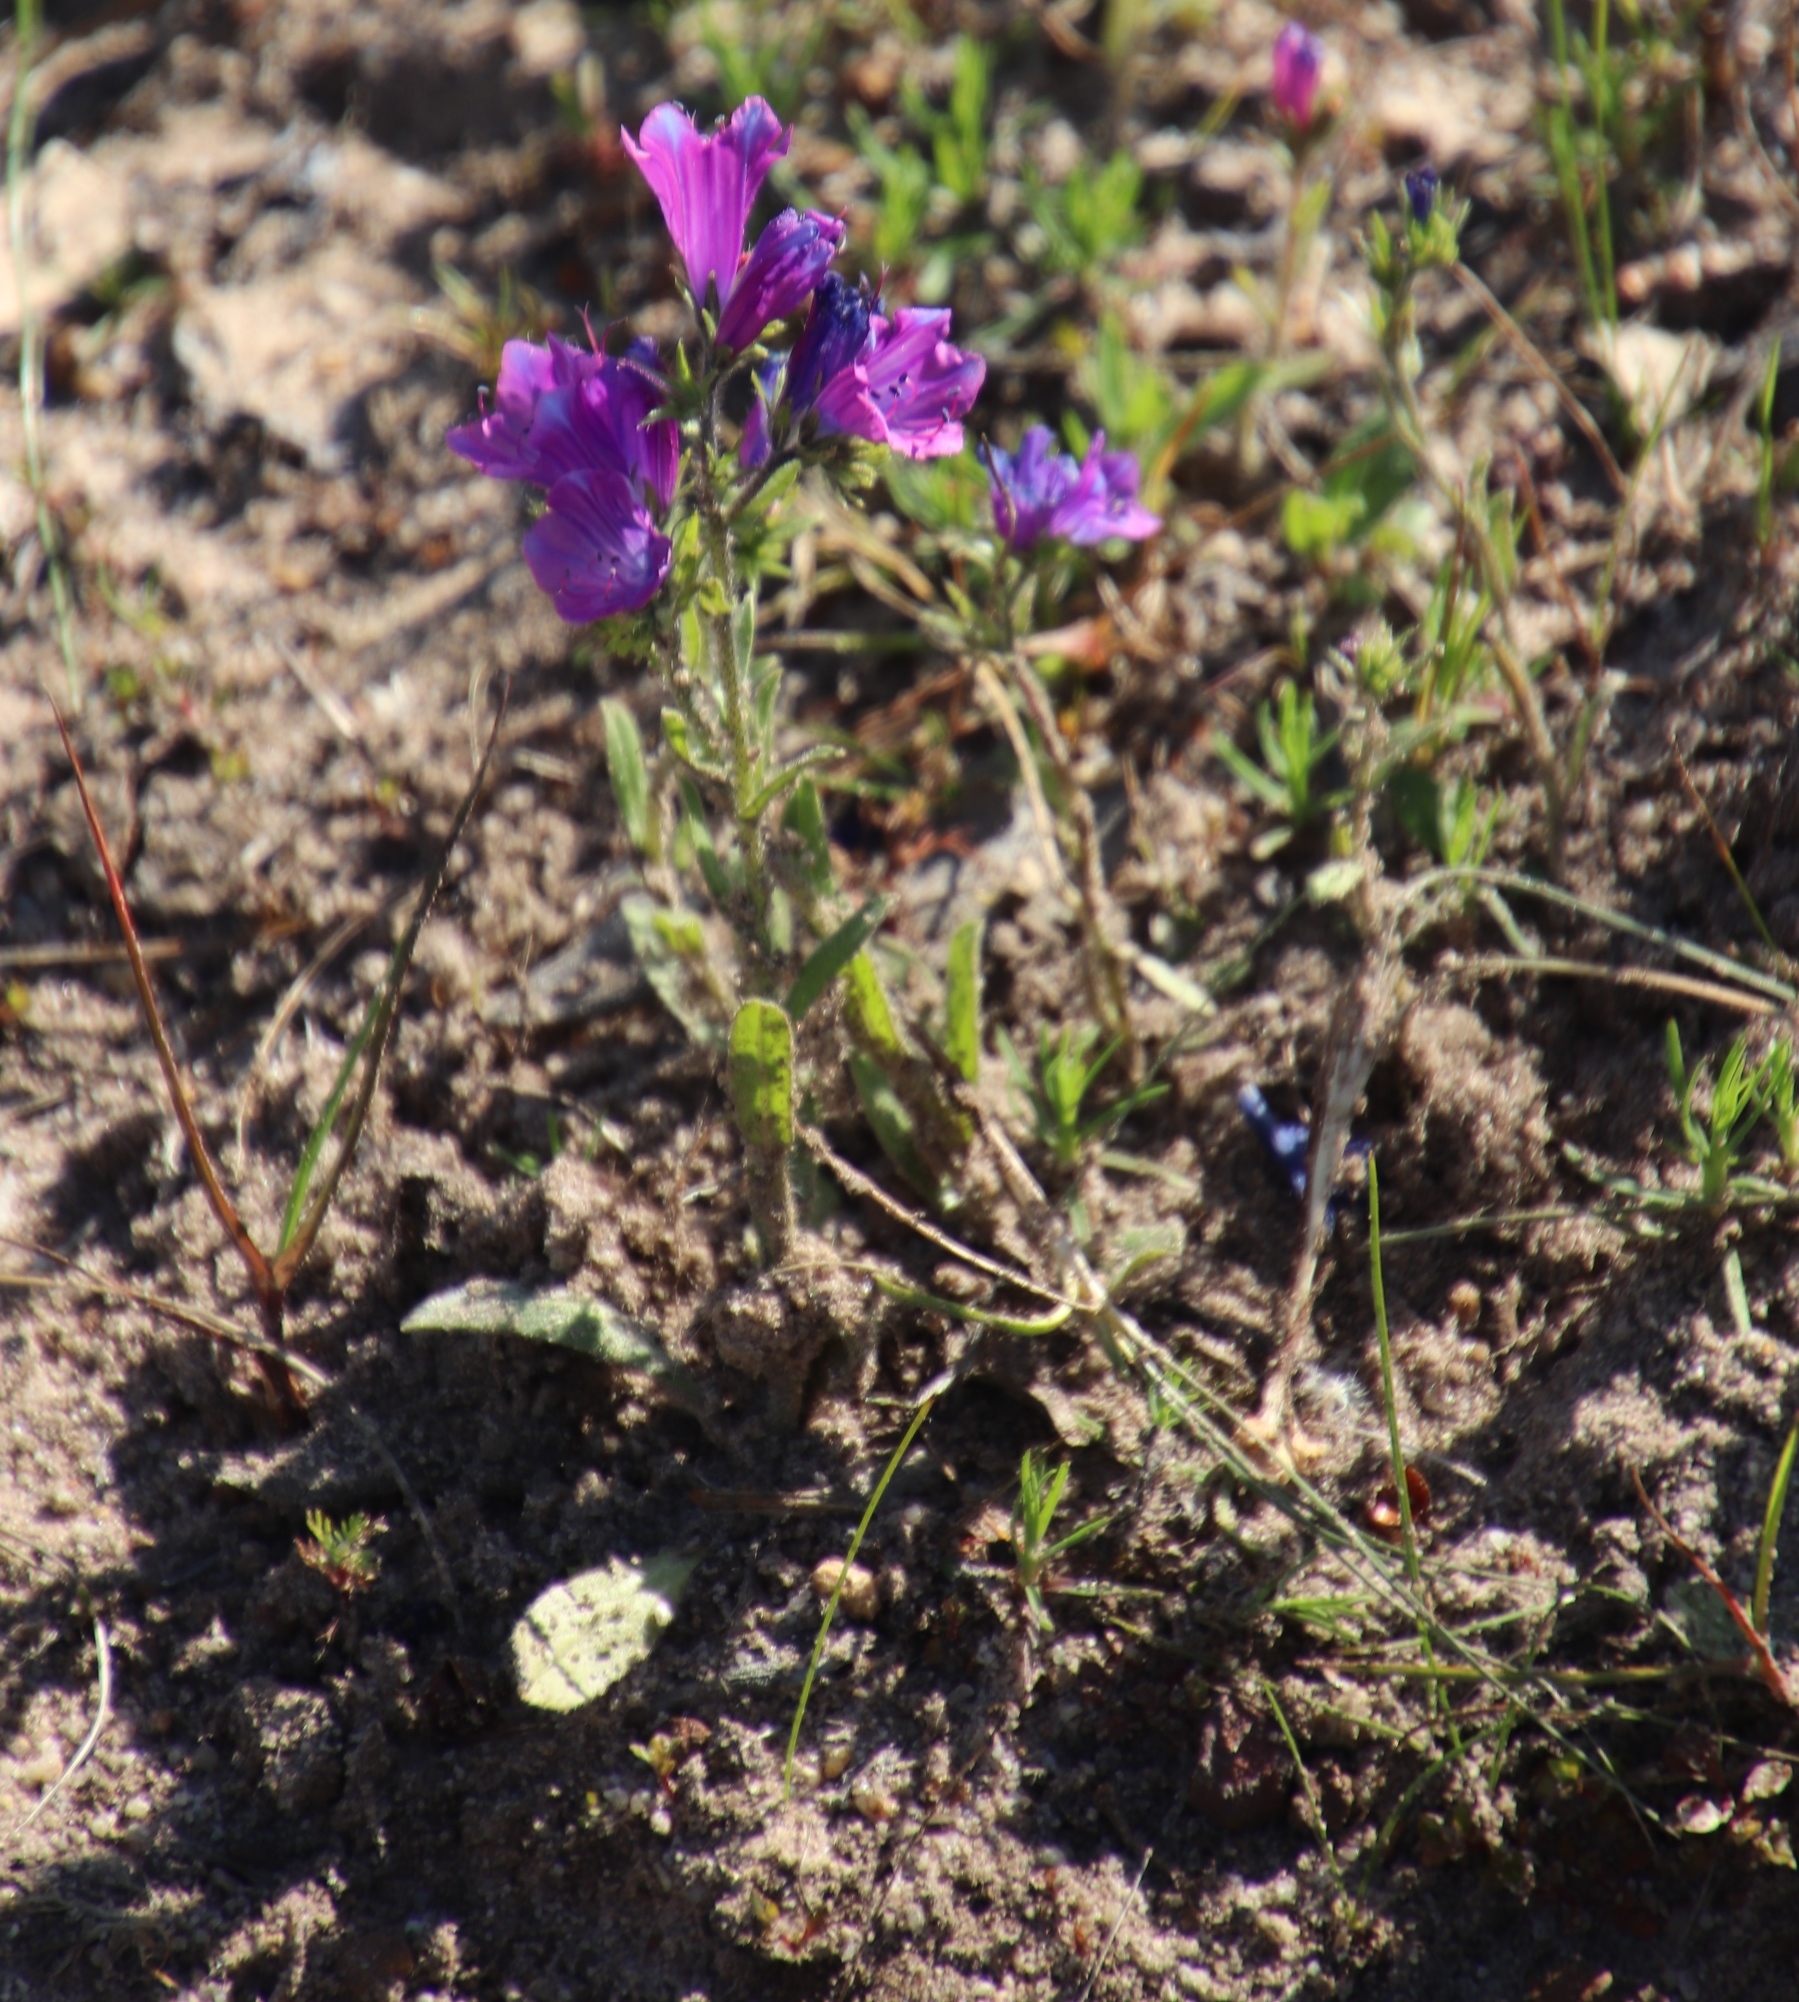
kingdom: Plantae
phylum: Tracheophyta
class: Magnoliopsida
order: Boraginales
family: Boraginaceae
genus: Echium
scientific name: Echium plantagineum
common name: Purple viper's-bugloss
